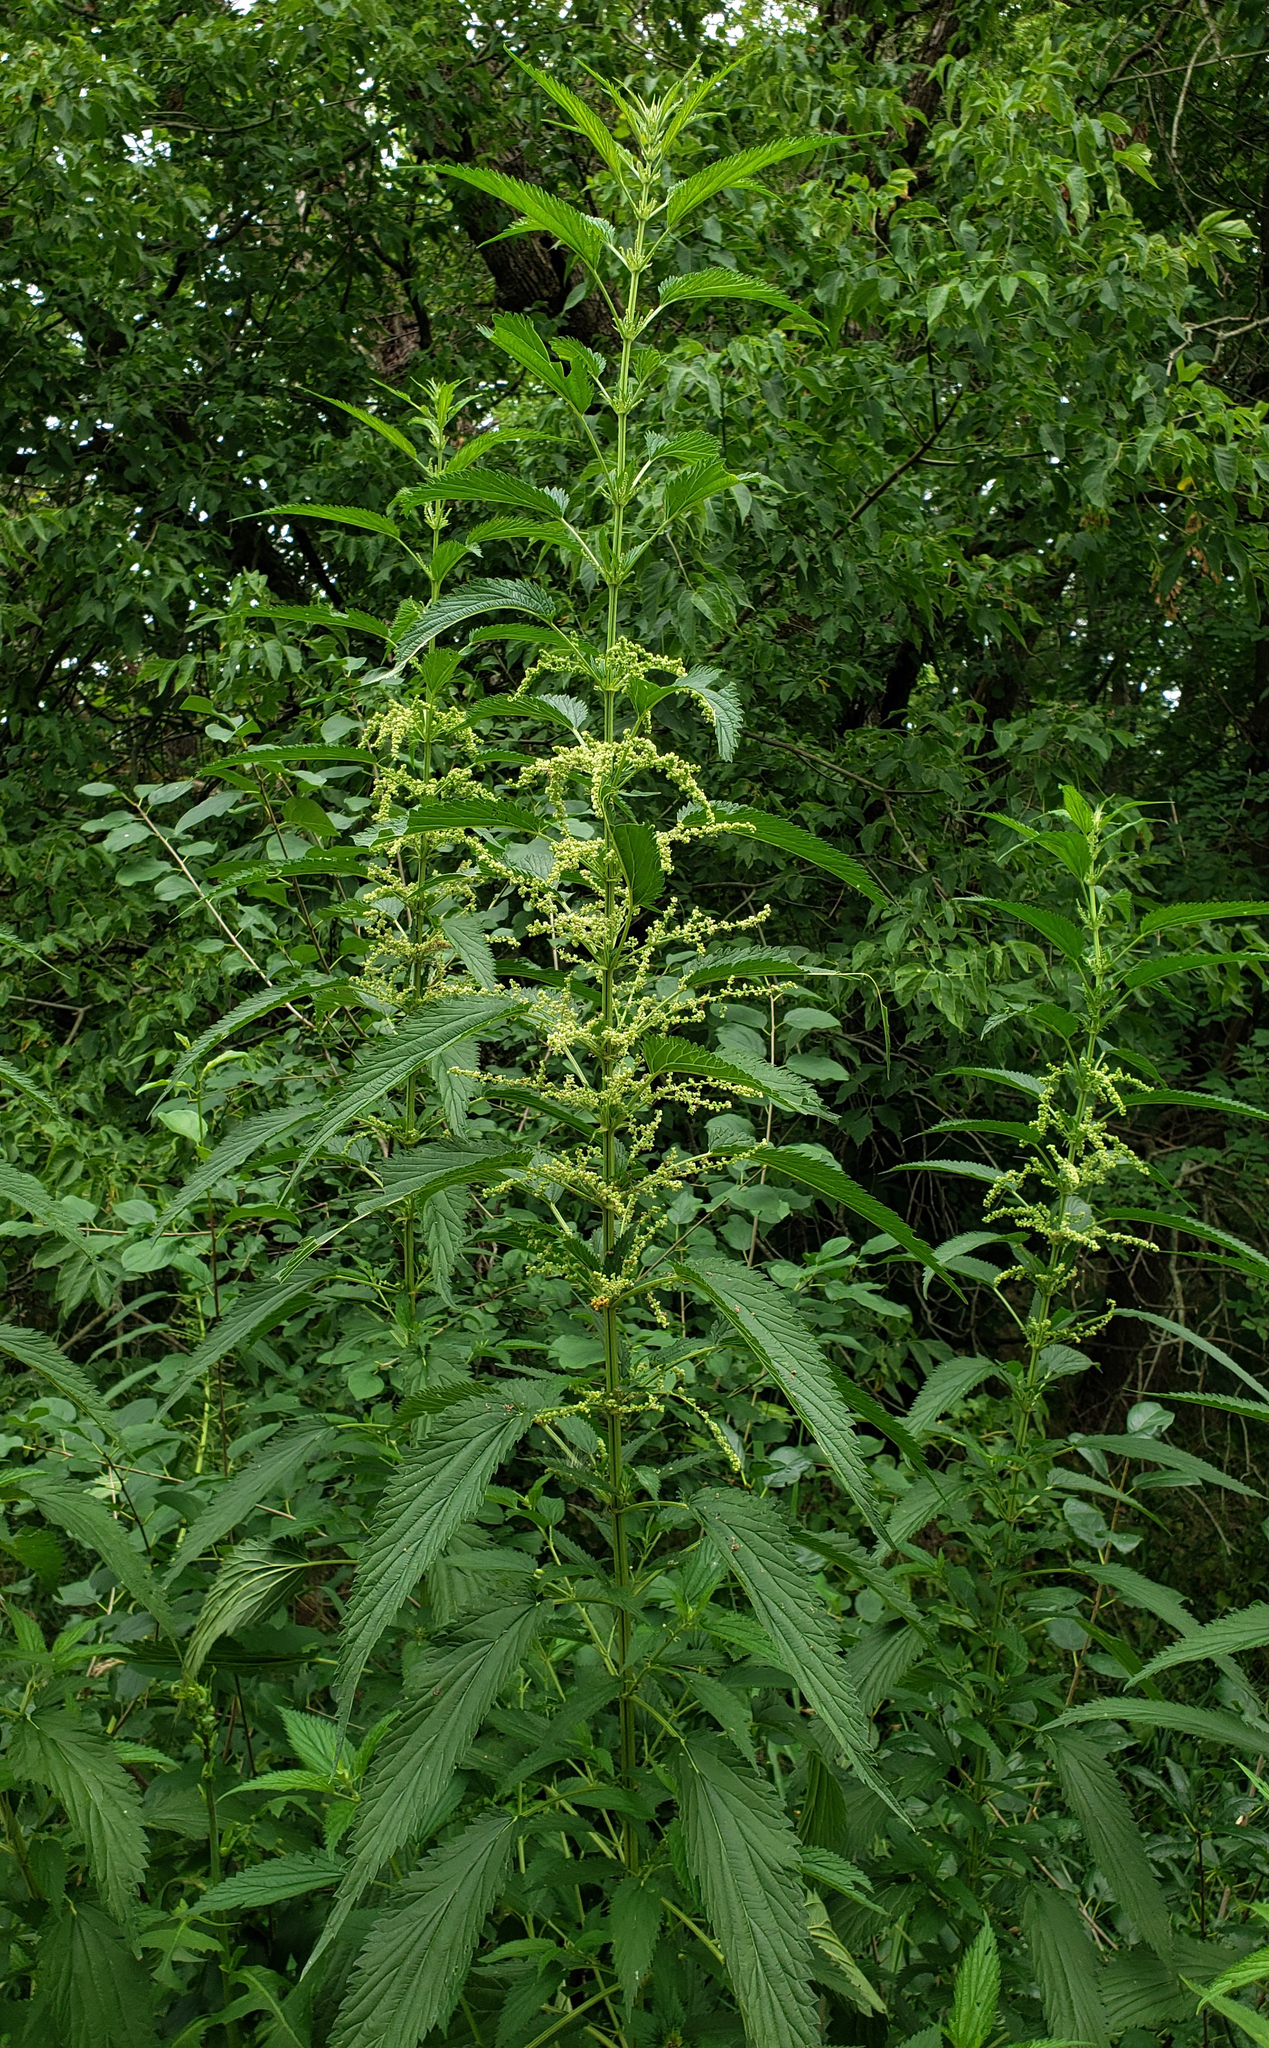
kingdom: Plantae
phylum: Tracheophyta
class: Magnoliopsida
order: Rosales
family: Urticaceae
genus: Urtica
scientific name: Urtica dioica
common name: Common nettle
